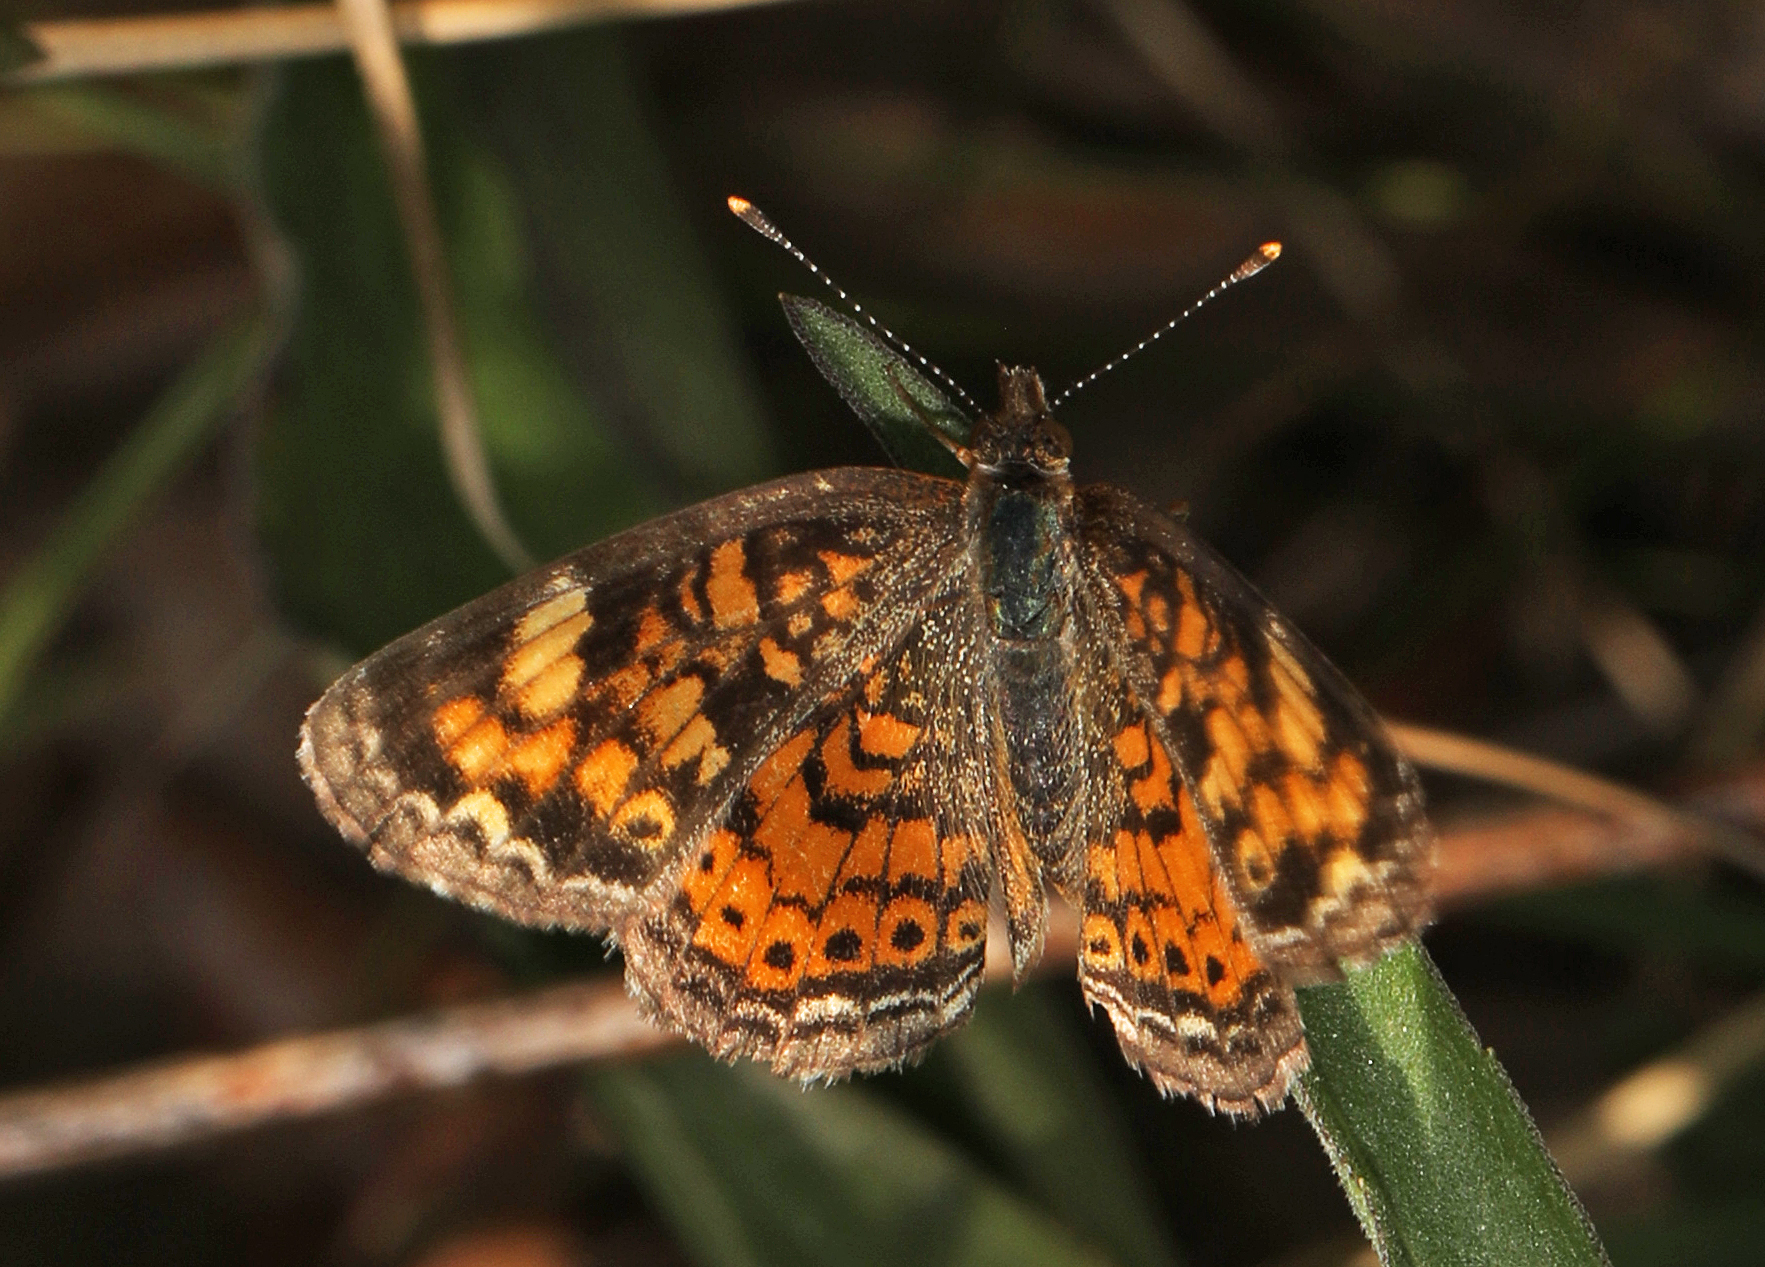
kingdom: Animalia
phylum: Arthropoda
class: Insecta
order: Lepidoptera
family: Nymphalidae
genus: Phyciodes
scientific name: Phyciodes tharos
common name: Pearl crescent
